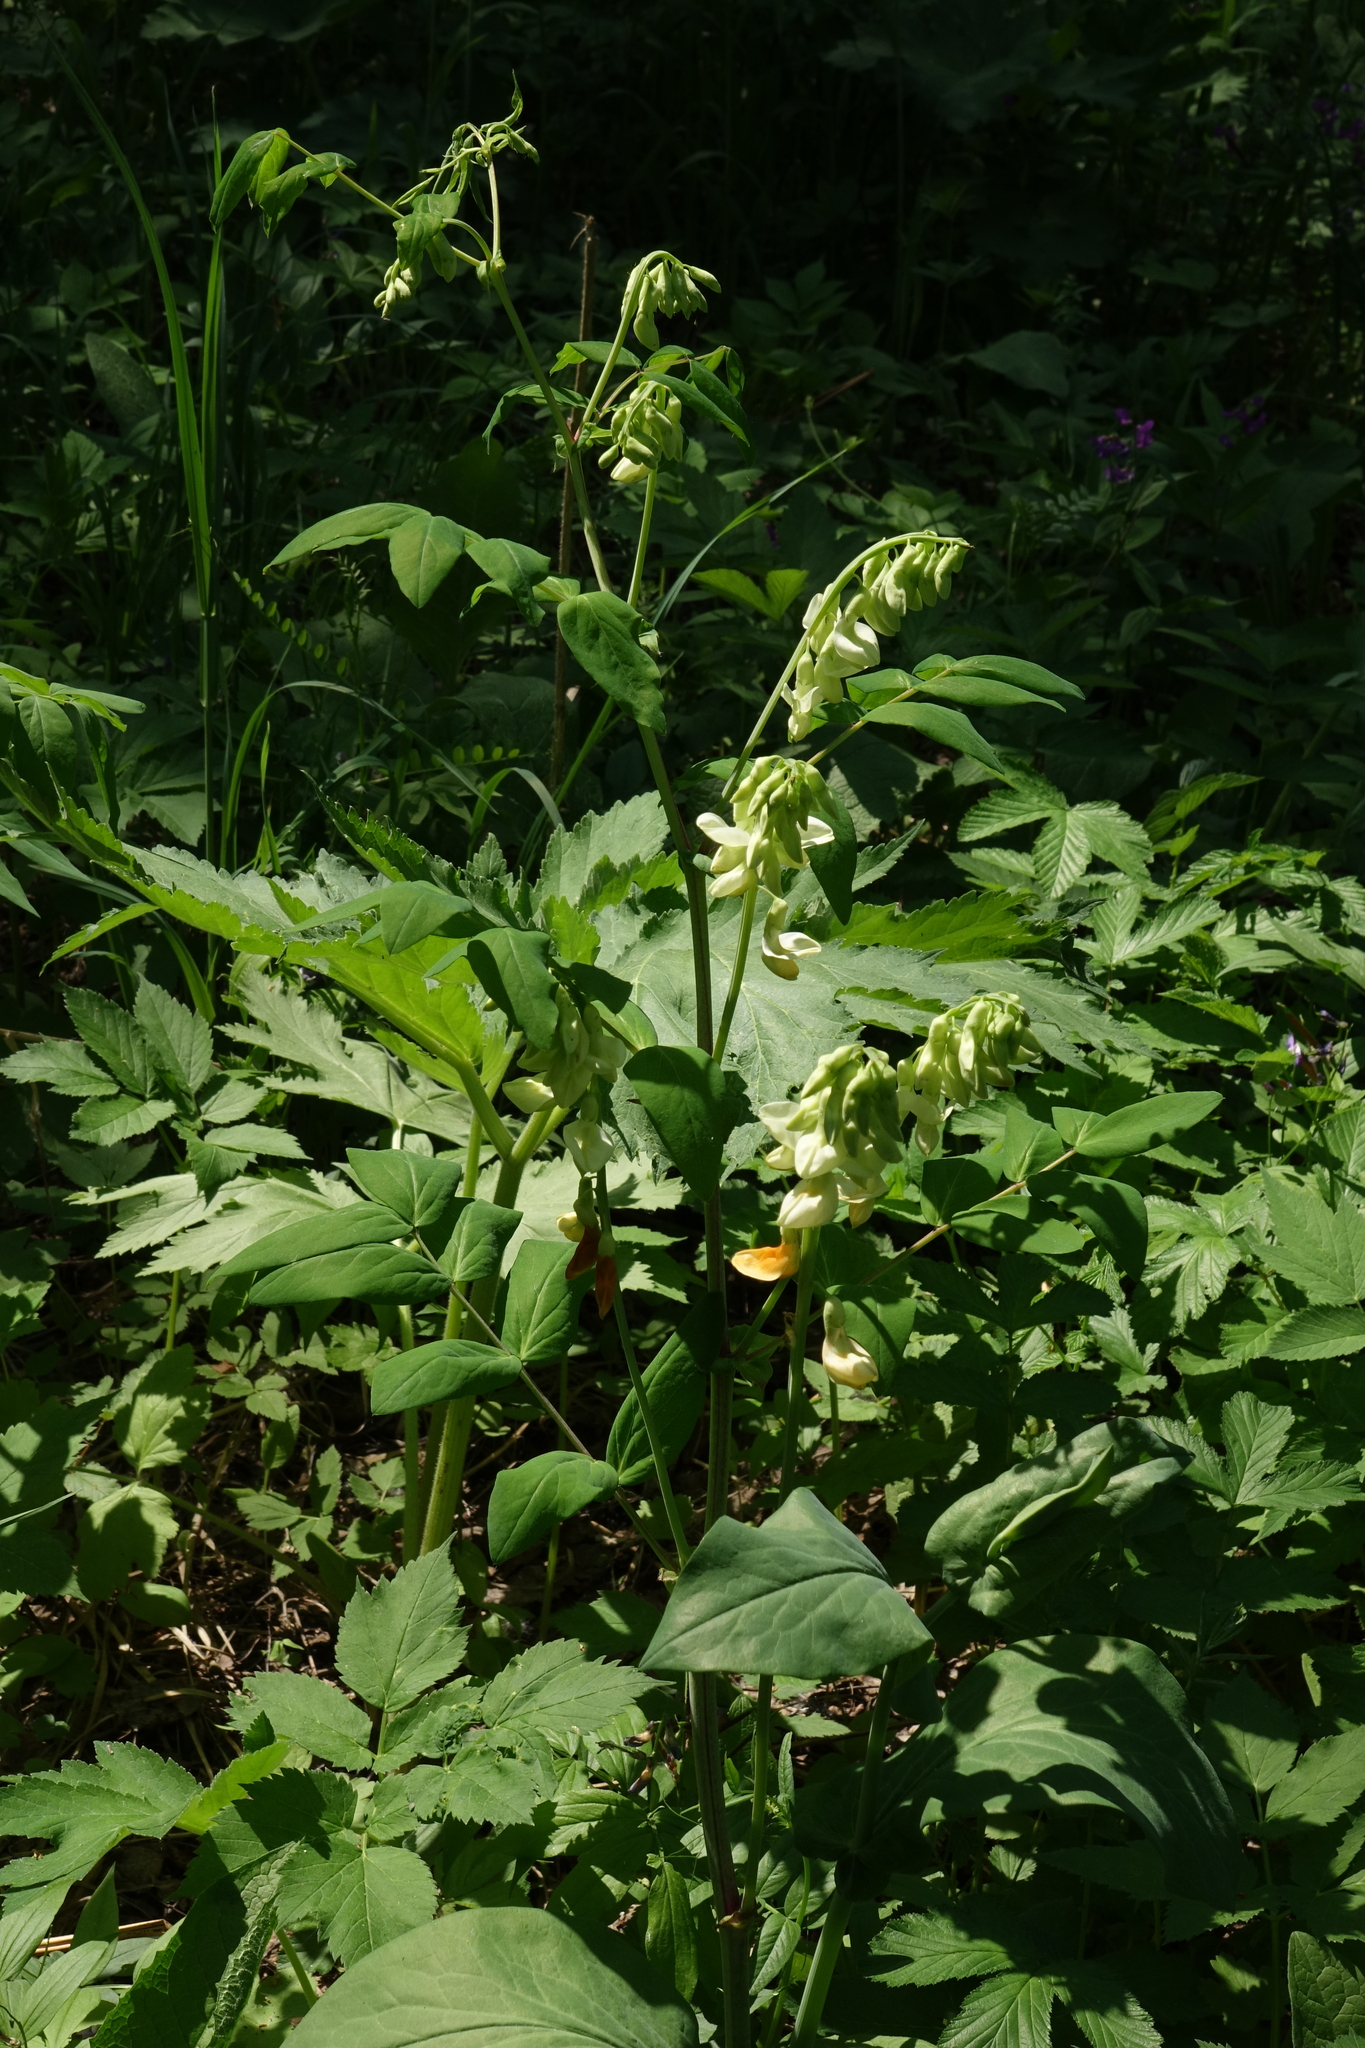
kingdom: Plantae
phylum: Tracheophyta
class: Magnoliopsida
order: Fabales
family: Fabaceae
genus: Lathyrus
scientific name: Lathyrus gmelinii
